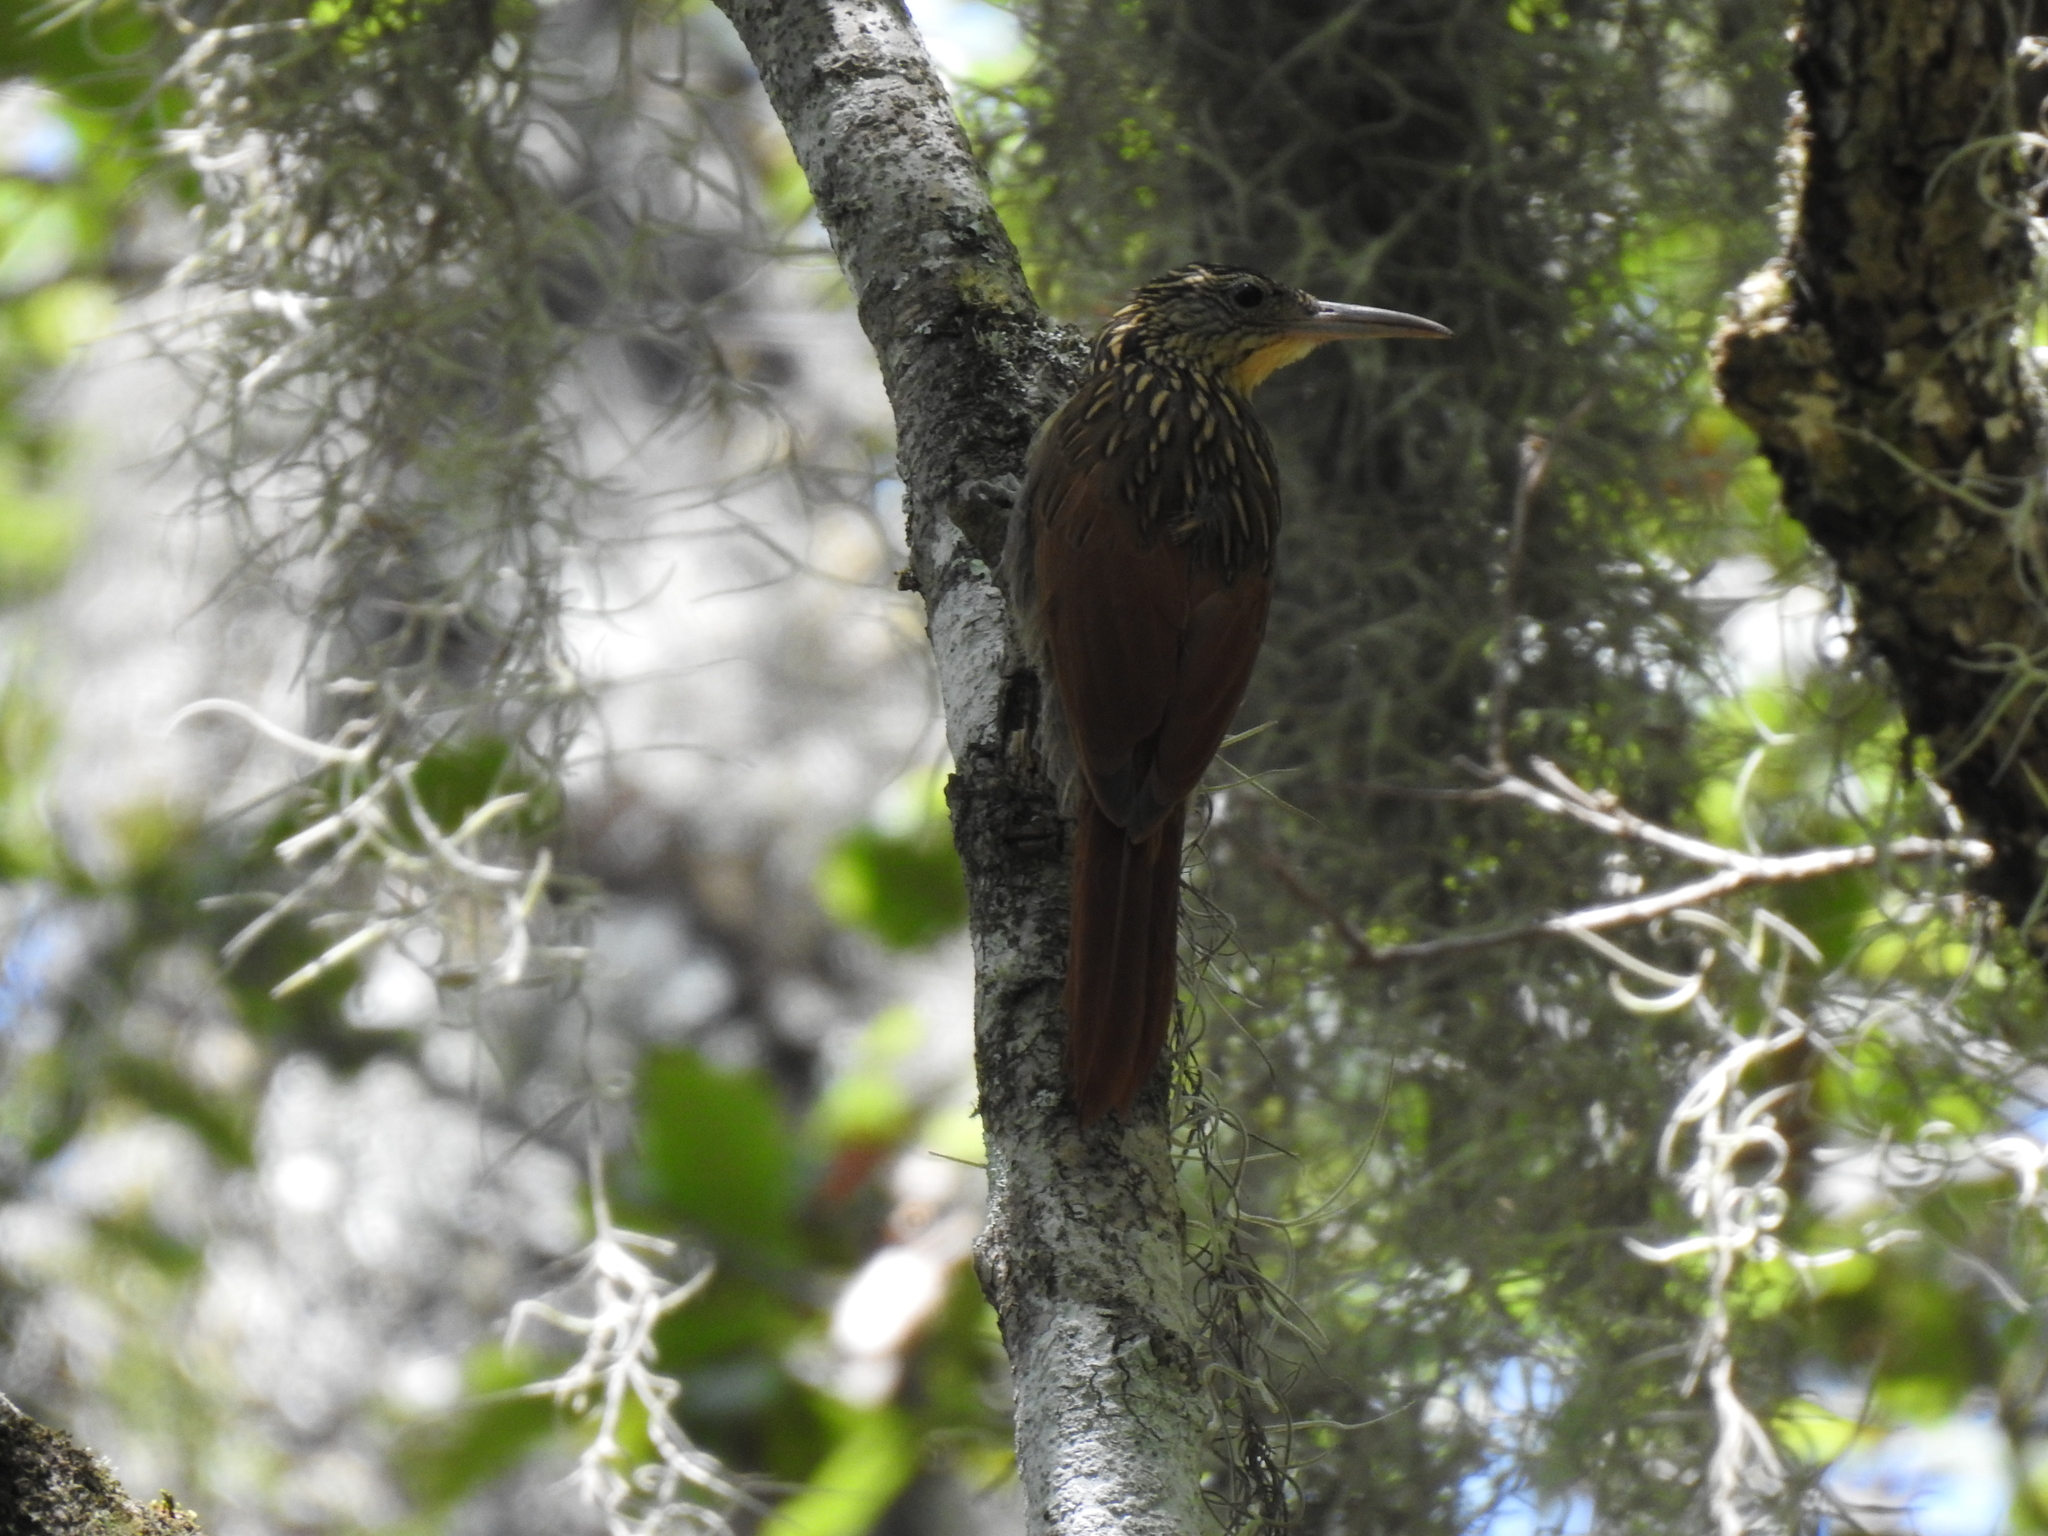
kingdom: Animalia
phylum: Chordata
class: Aves
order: Passeriformes
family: Furnariidae
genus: Xiphorhynchus
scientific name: Xiphorhynchus flavigaster
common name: Ivory-billed woodcreeper
